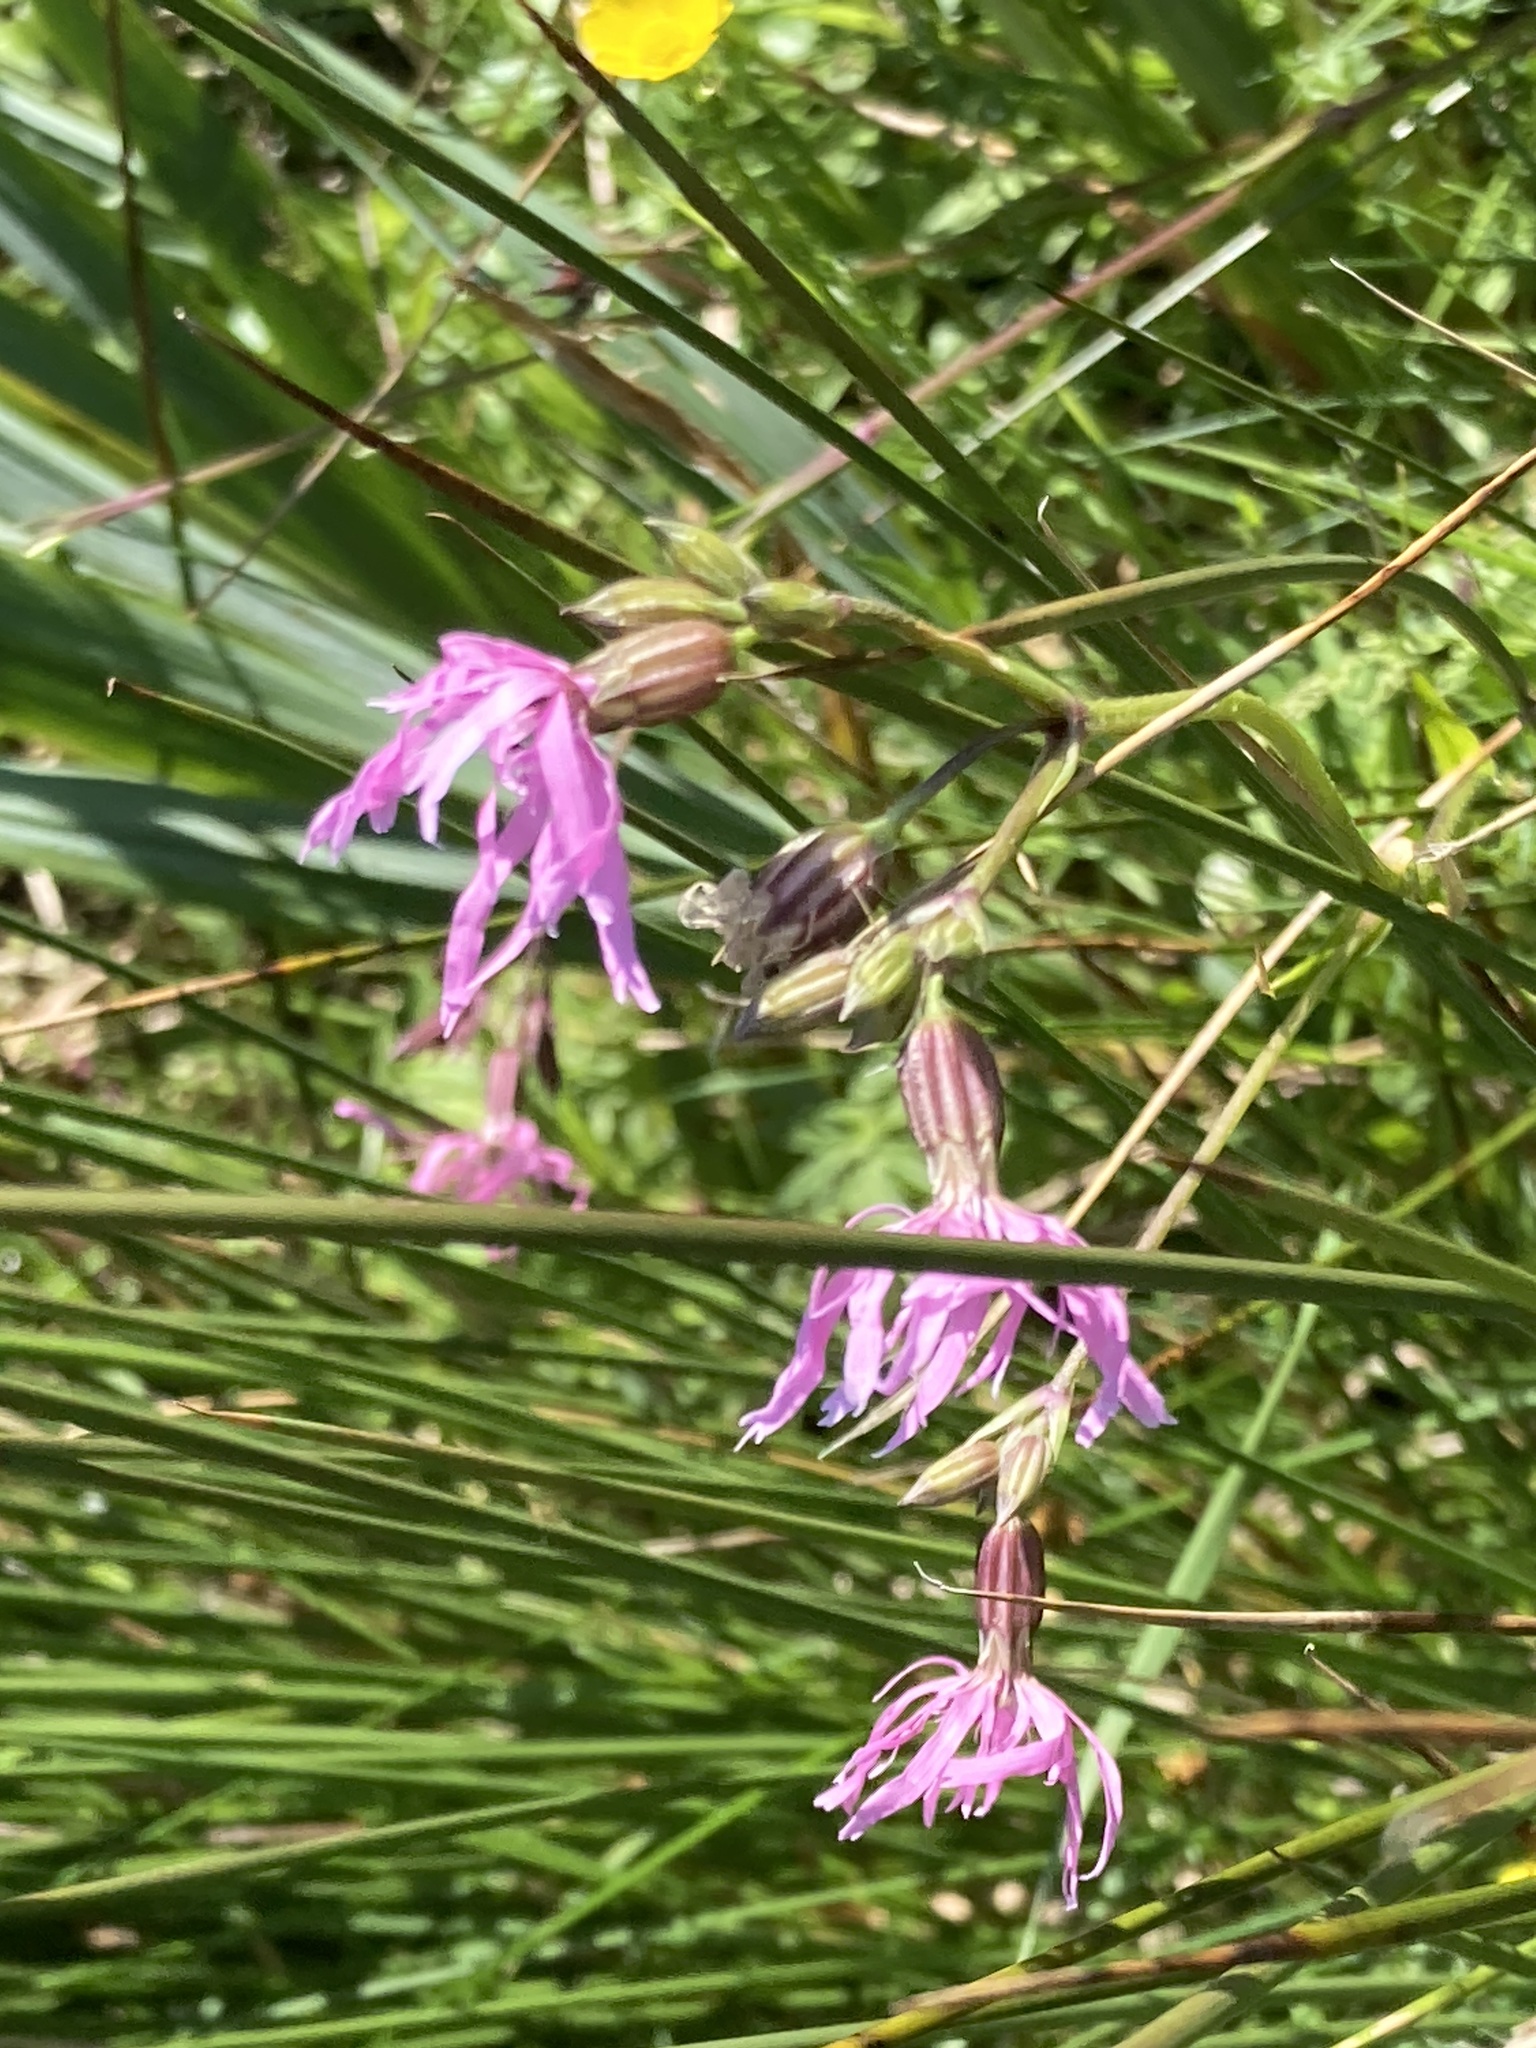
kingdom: Plantae
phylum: Tracheophyta
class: Magnoliopsida
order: Caryophyllales
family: Caryophyllaceae
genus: Silene
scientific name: Silene flos-cuculi
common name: Ragged-robin
